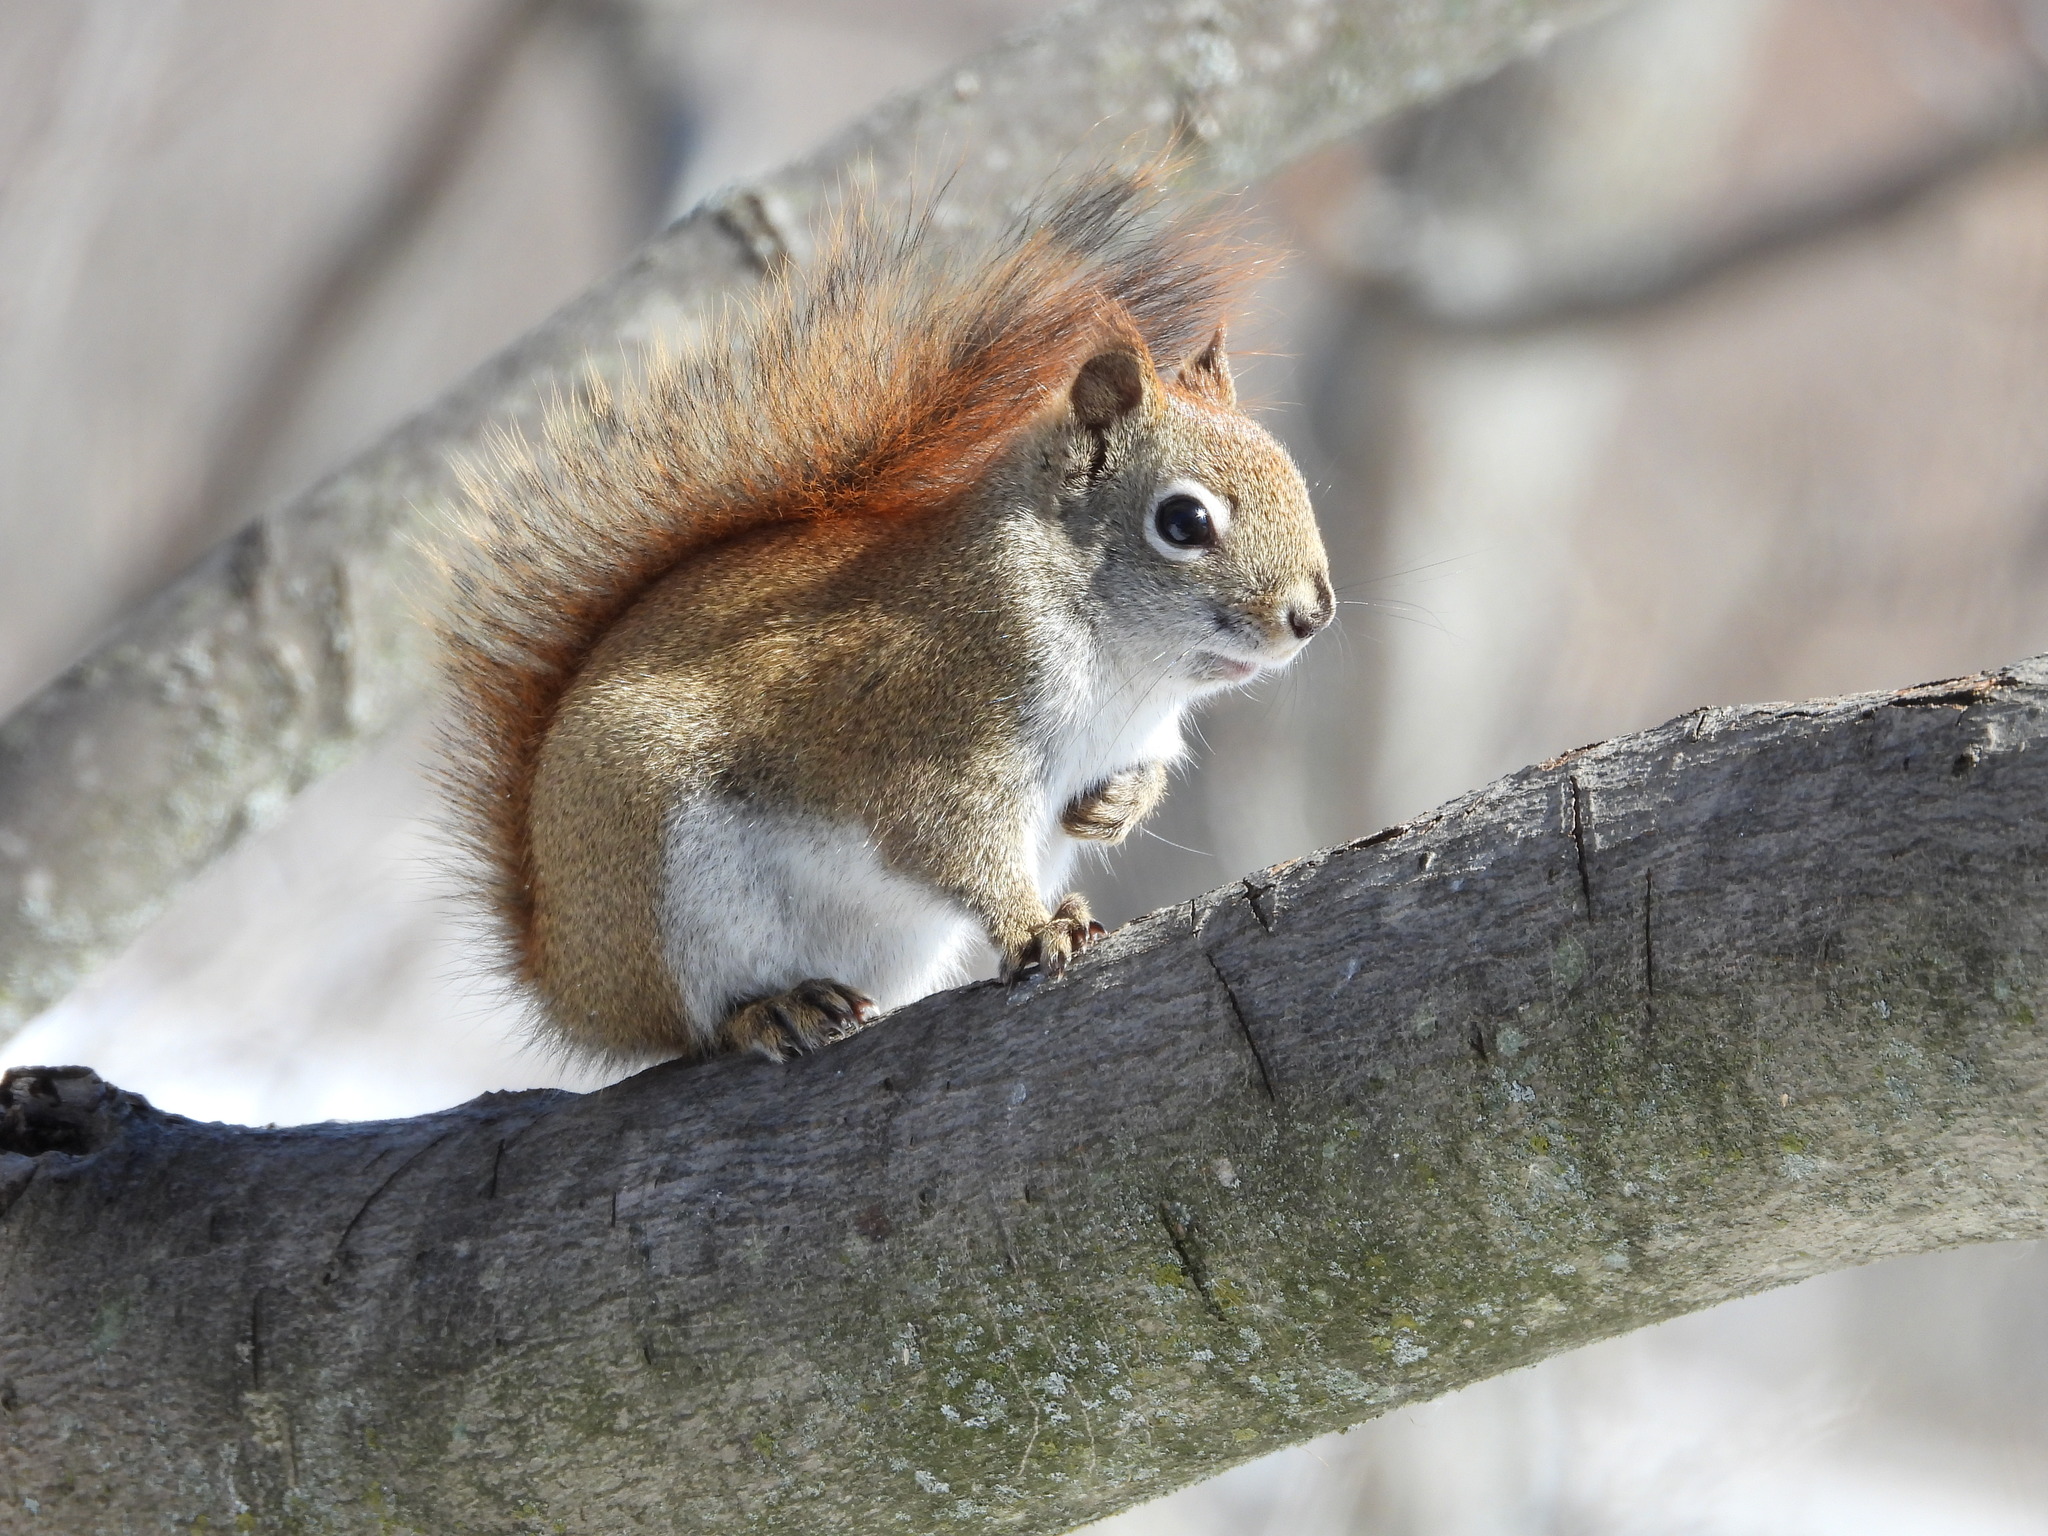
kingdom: Animalia
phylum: Chordata
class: Mammalia
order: Rodentia
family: Sciuridae
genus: Tamiasciurus
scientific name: Tamiasciurus hudsonicus
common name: Red squirrel
